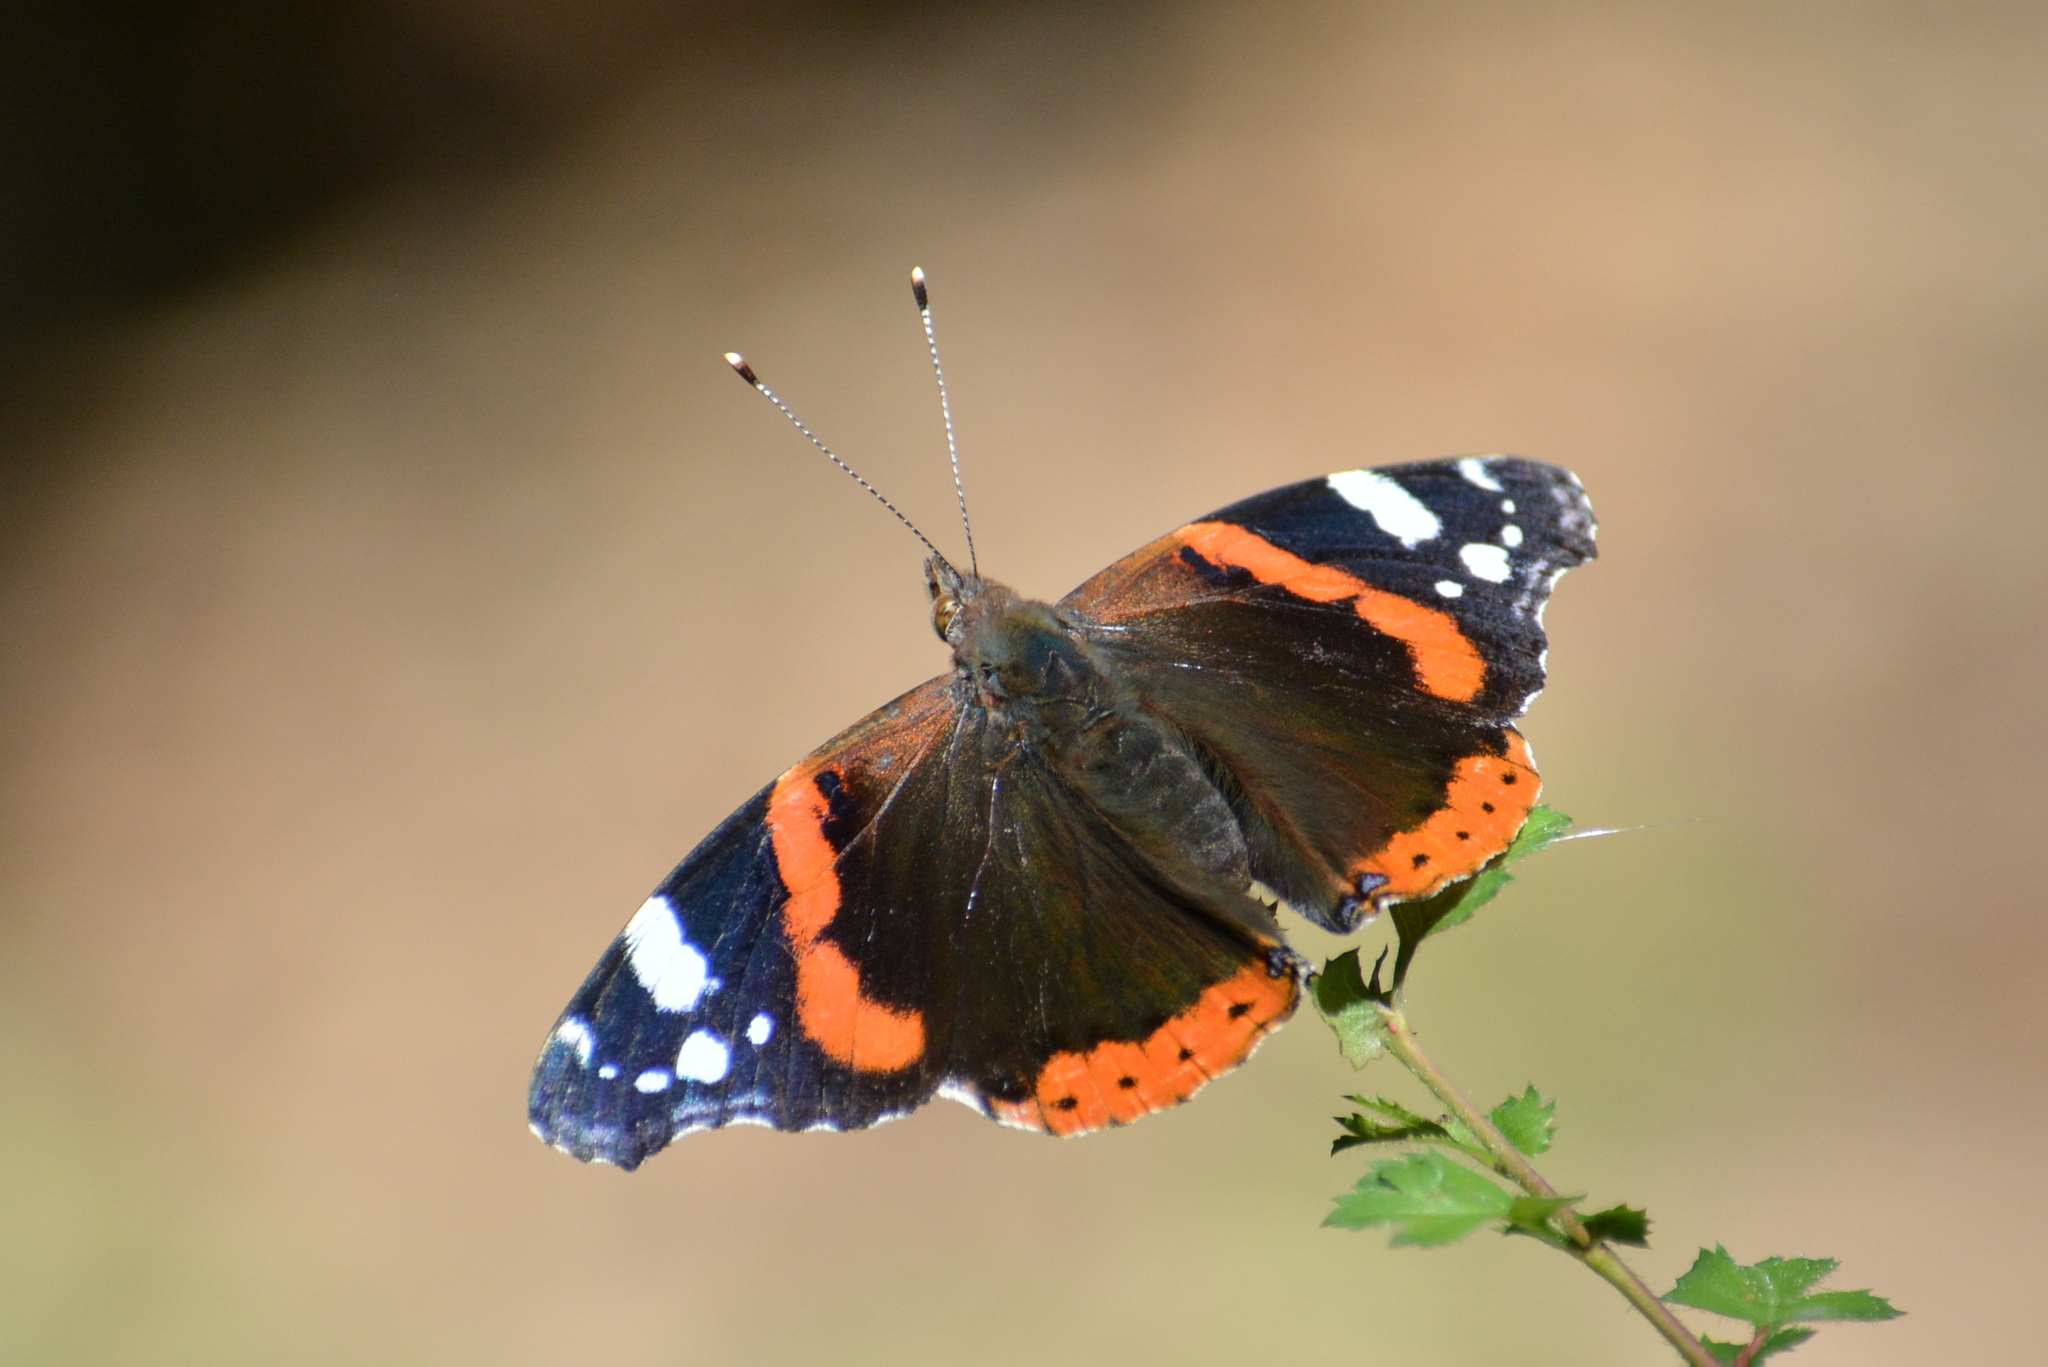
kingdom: Animalia
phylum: Arthropoda
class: Insecta
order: Lepidoptera
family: Nymphalidae
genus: Vanessa
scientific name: Vanessa atalanta
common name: Red admiral
